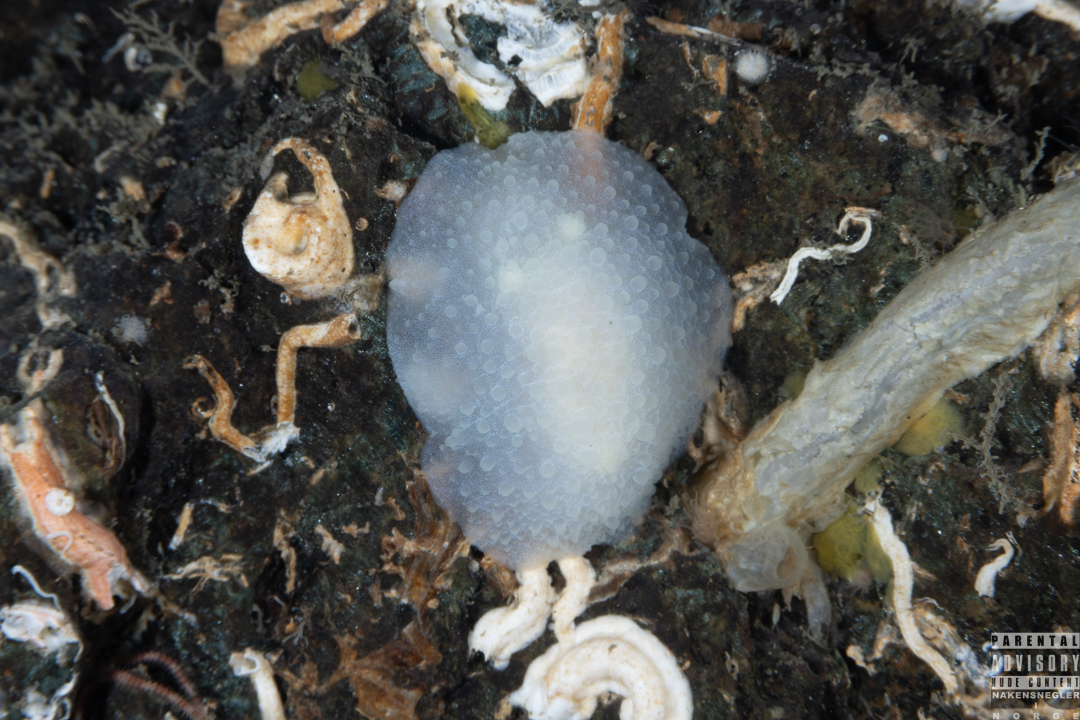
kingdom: Animalia
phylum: Mollusca
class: Gastropoda
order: Nudibranchia
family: Cadlinidae
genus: Aldisa
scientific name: Aldisa zetlandica
